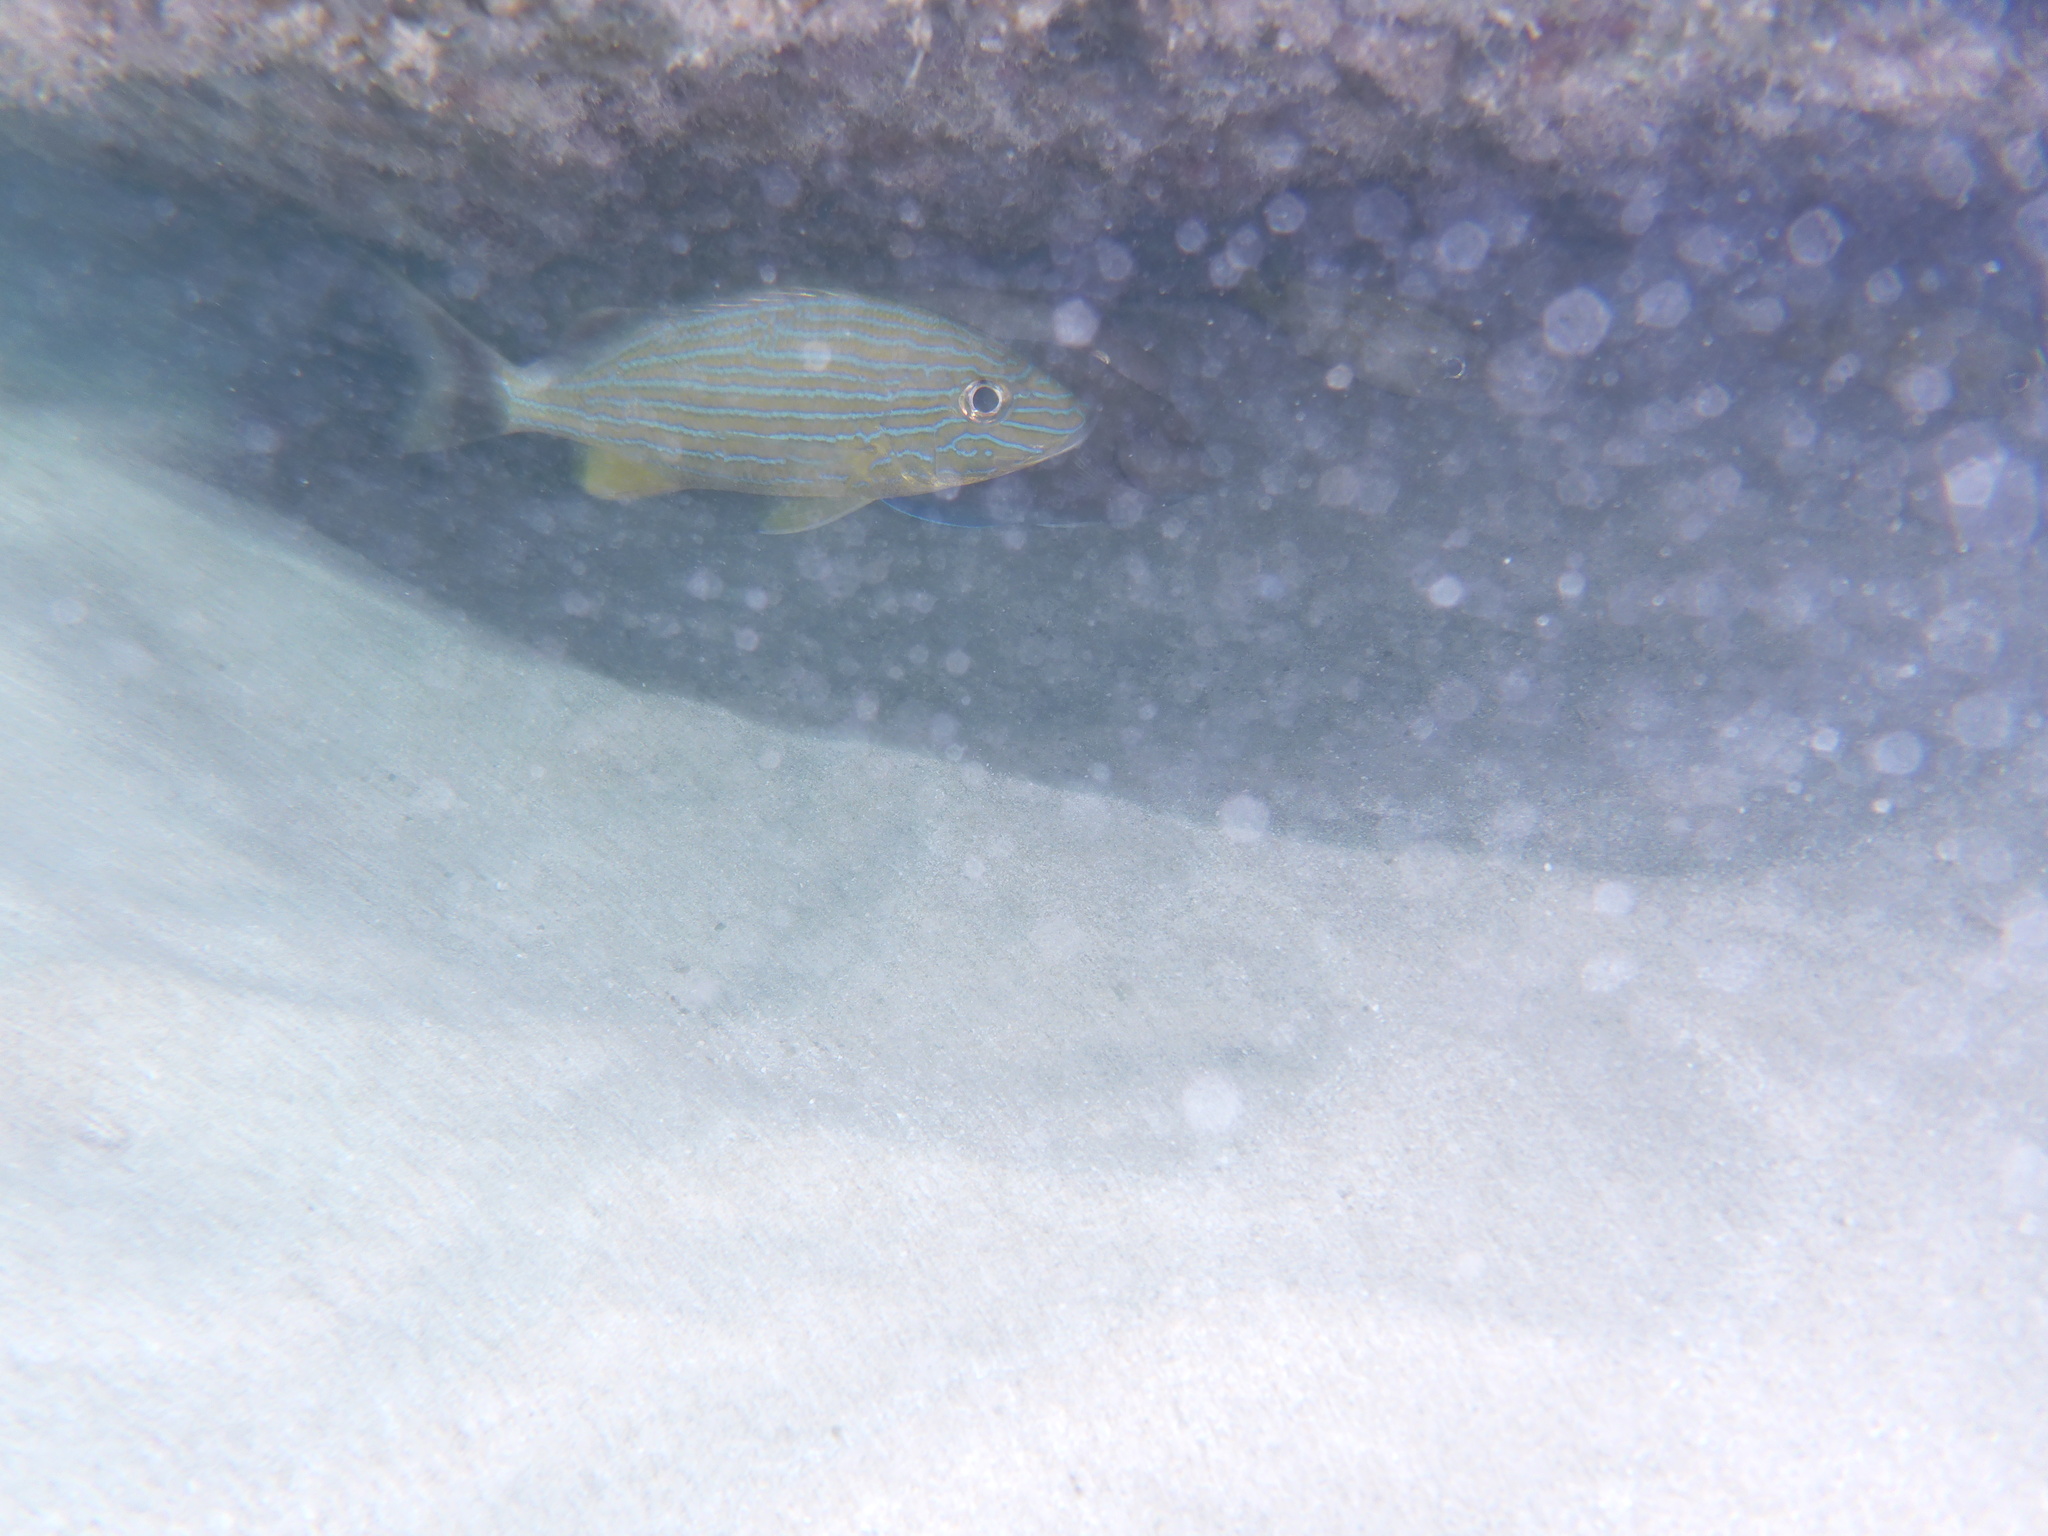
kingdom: Animalia
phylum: Chordata
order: Perciformes
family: Haemulidae
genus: Haemulon
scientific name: Haemulon sciurus
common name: Bluestriped grunt
